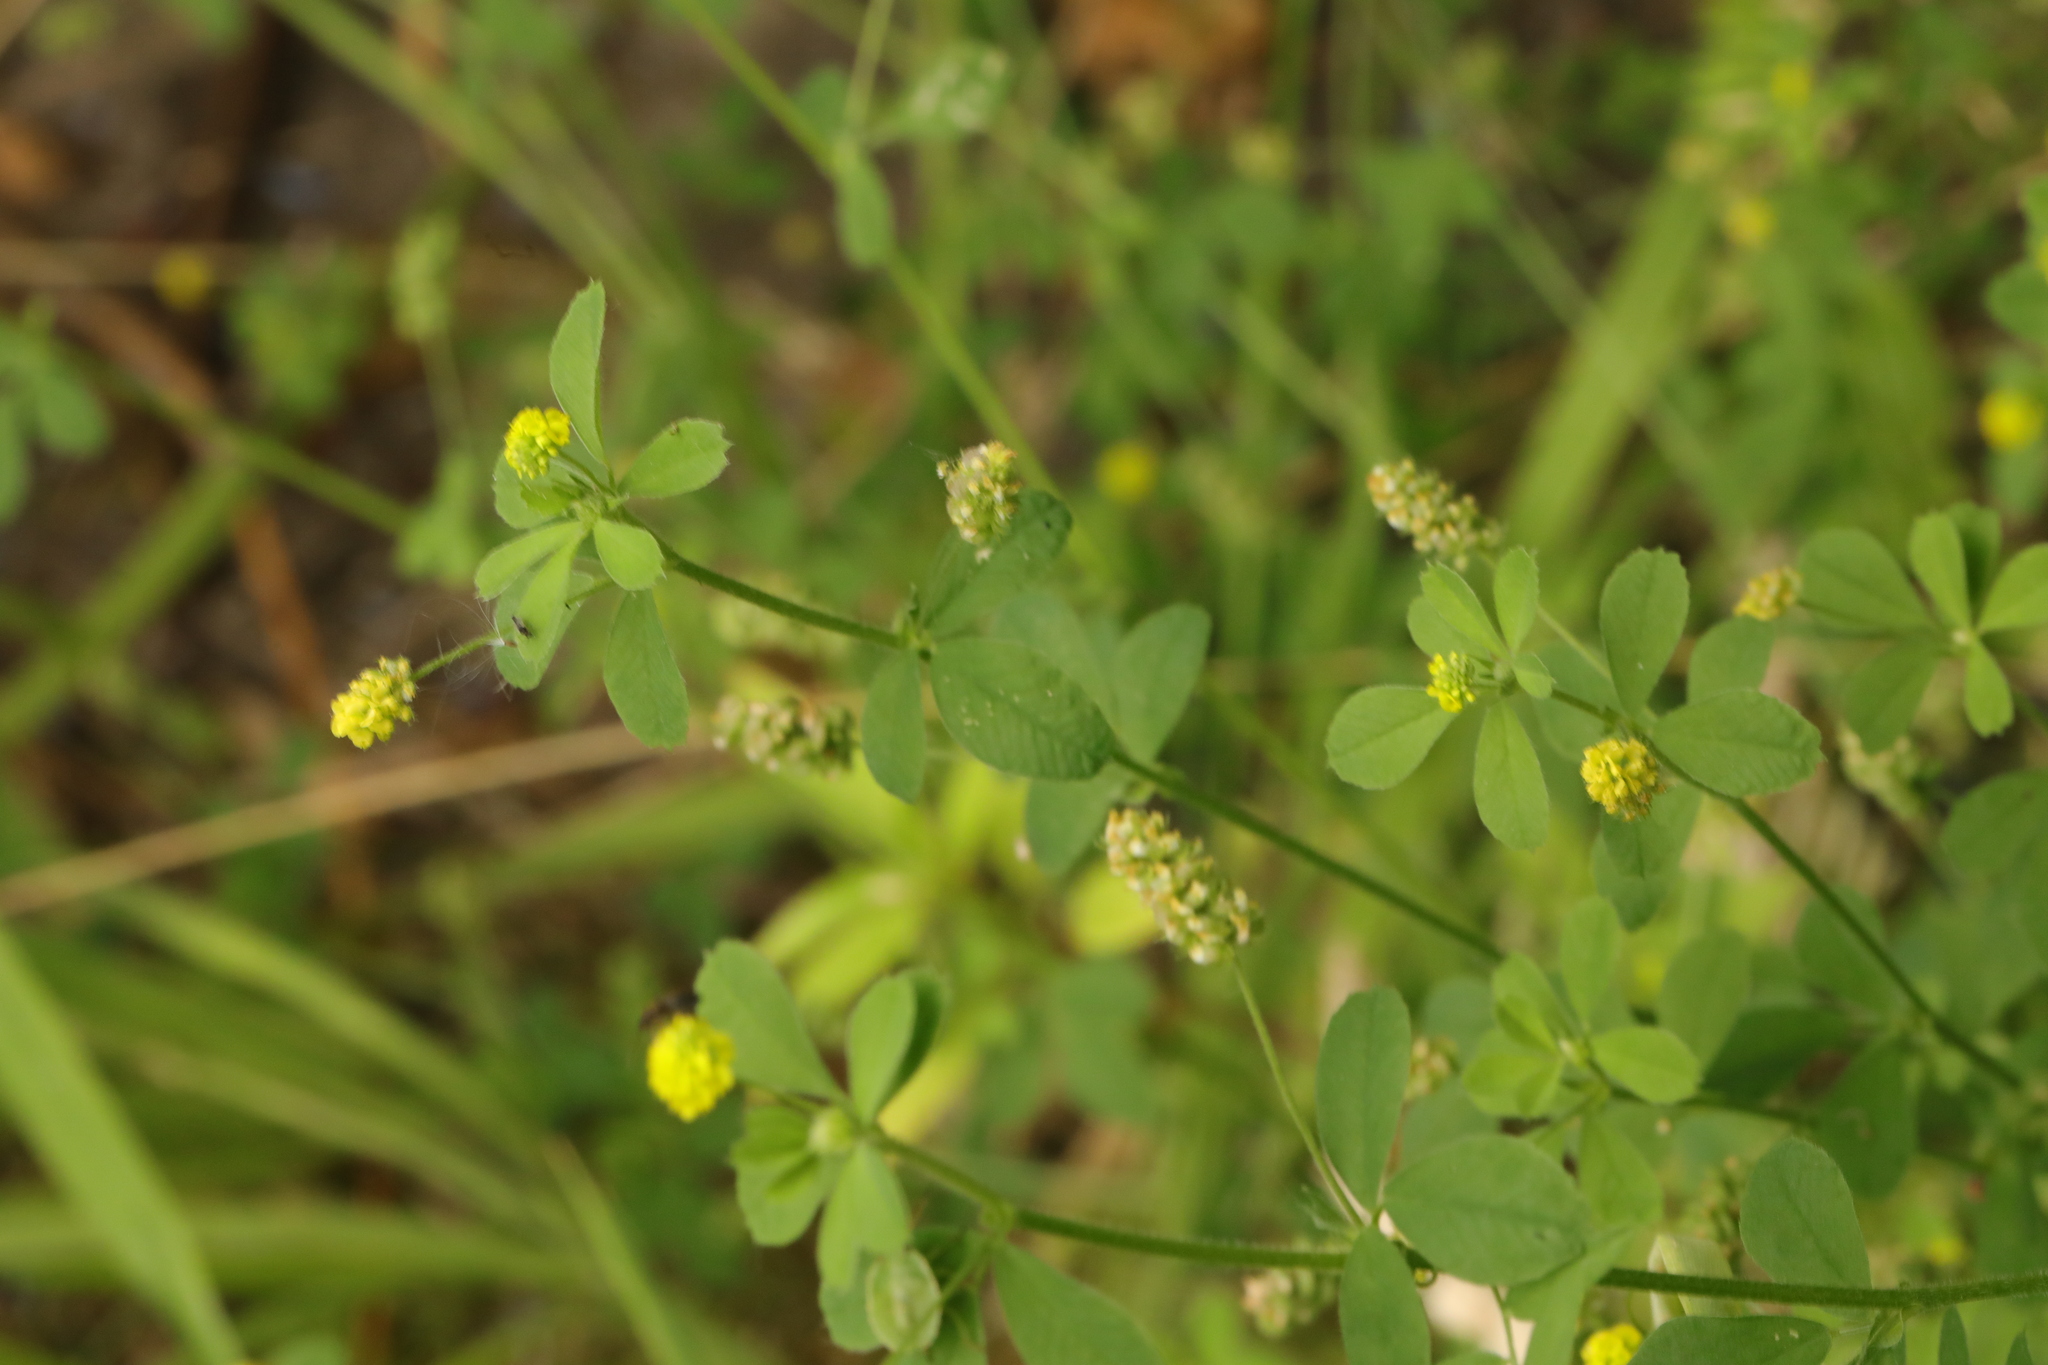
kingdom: Plantae
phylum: Tracheophyta
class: Magnoliopsida
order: Fabales
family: Fabaceae
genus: Medicago
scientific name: Medicago lupulina
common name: Black medick
